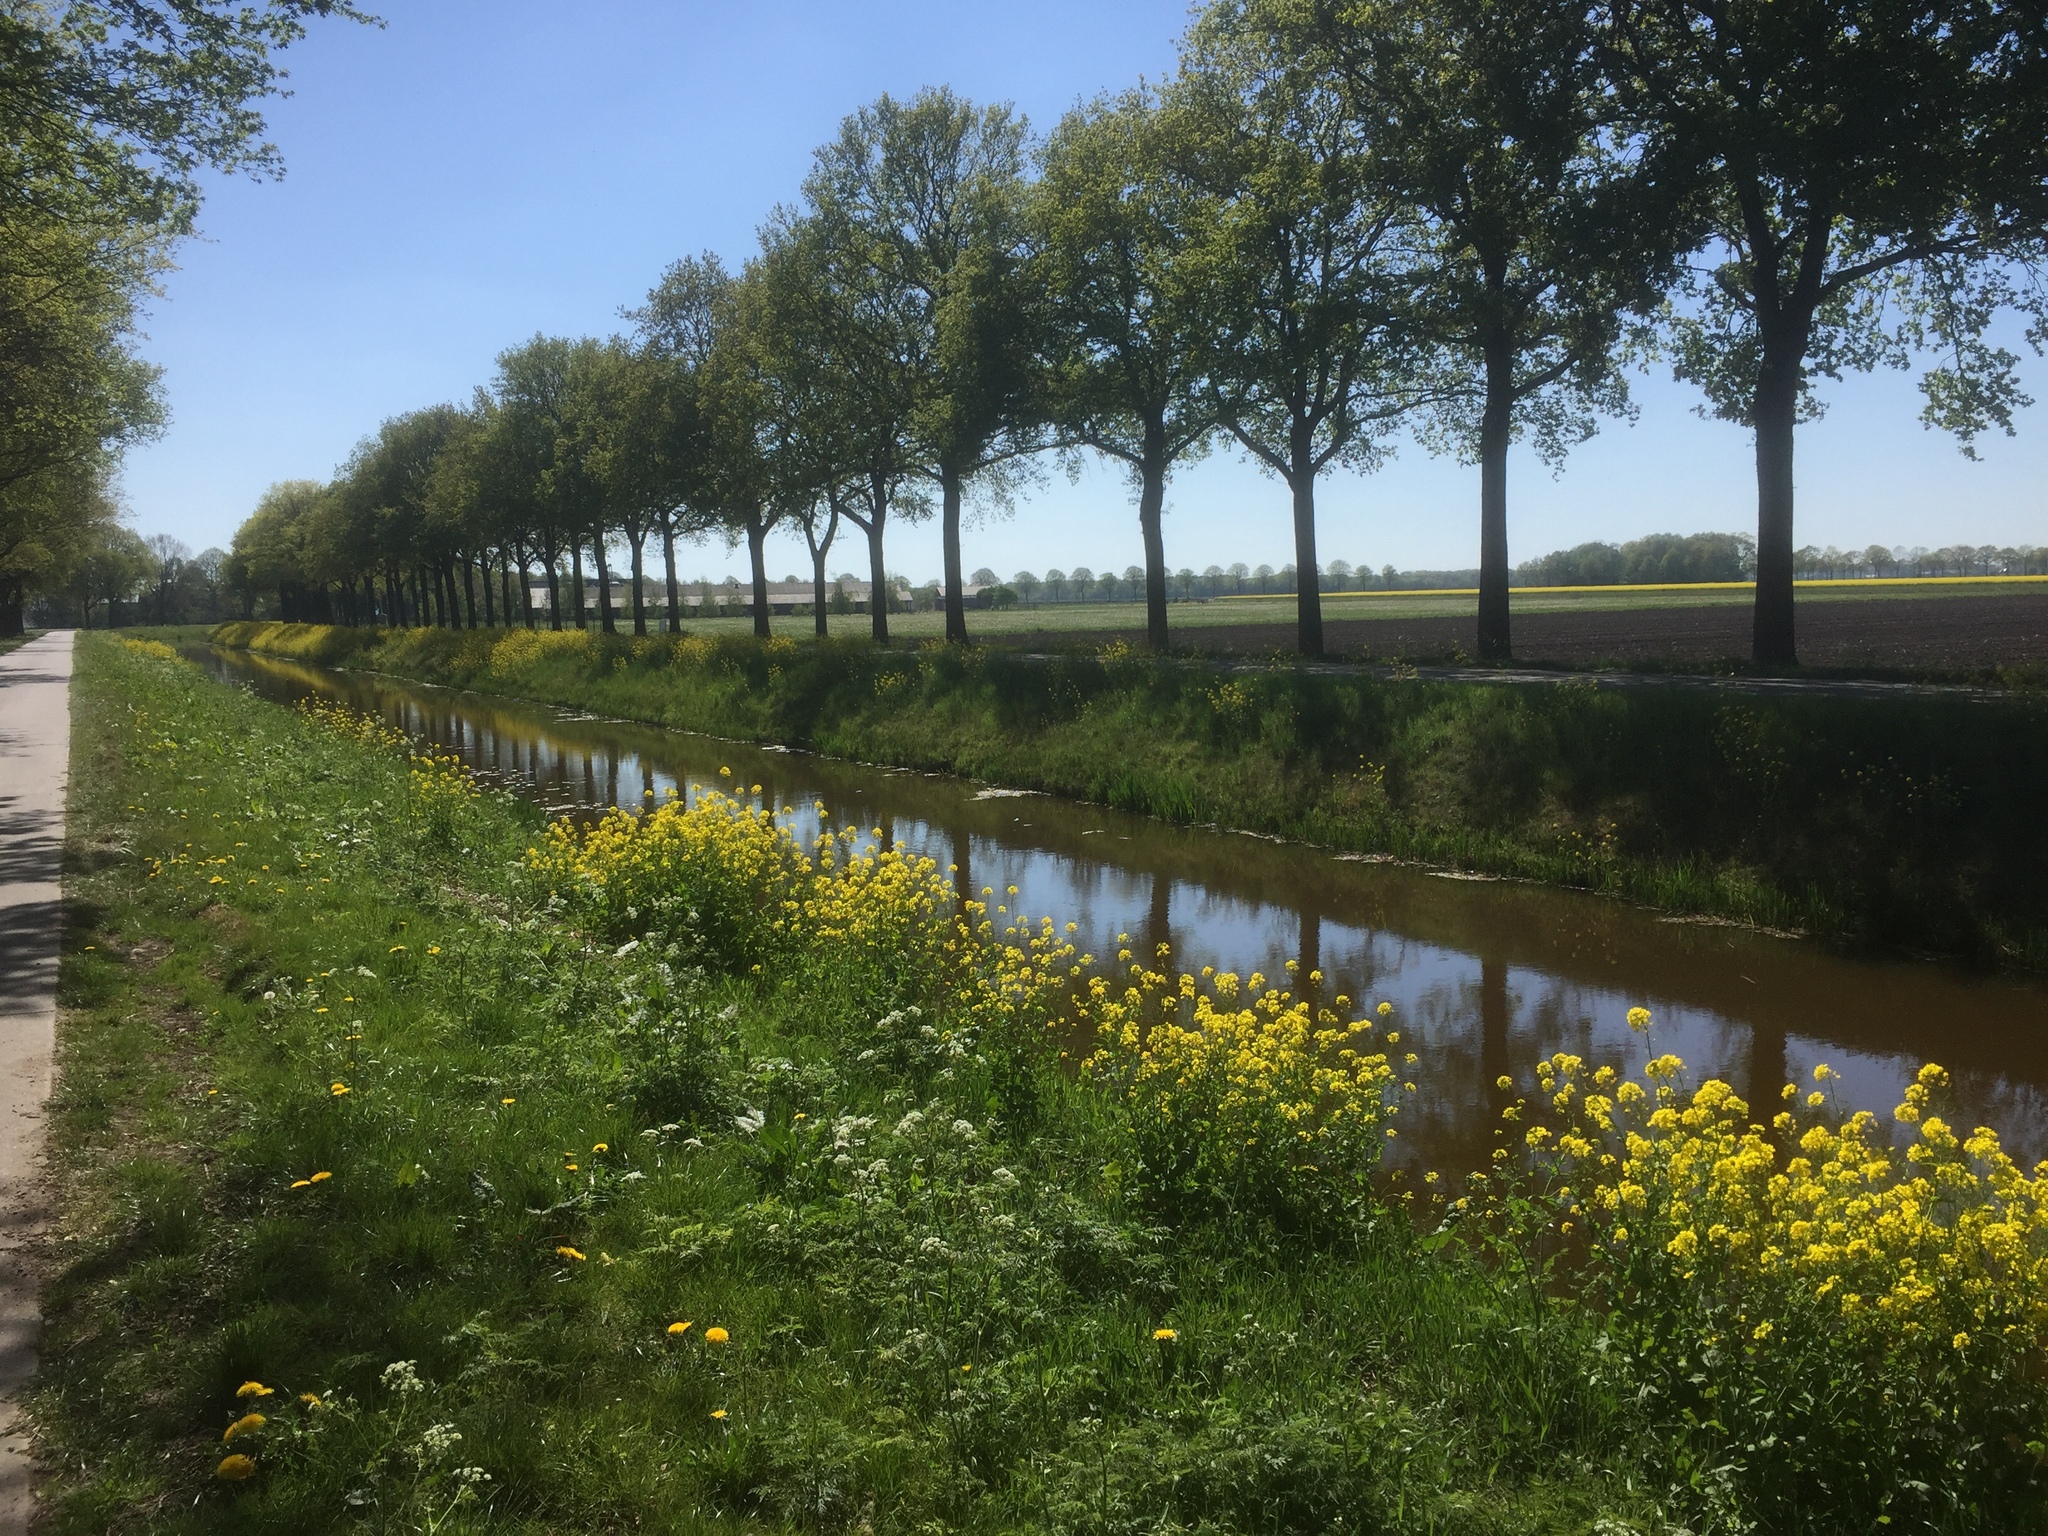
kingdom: Plantae
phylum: Tracheophyta
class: Magnoliopsida
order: Brassicales
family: Brassicaceae
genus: Brassica
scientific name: Brassica rapa
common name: Field mustard
